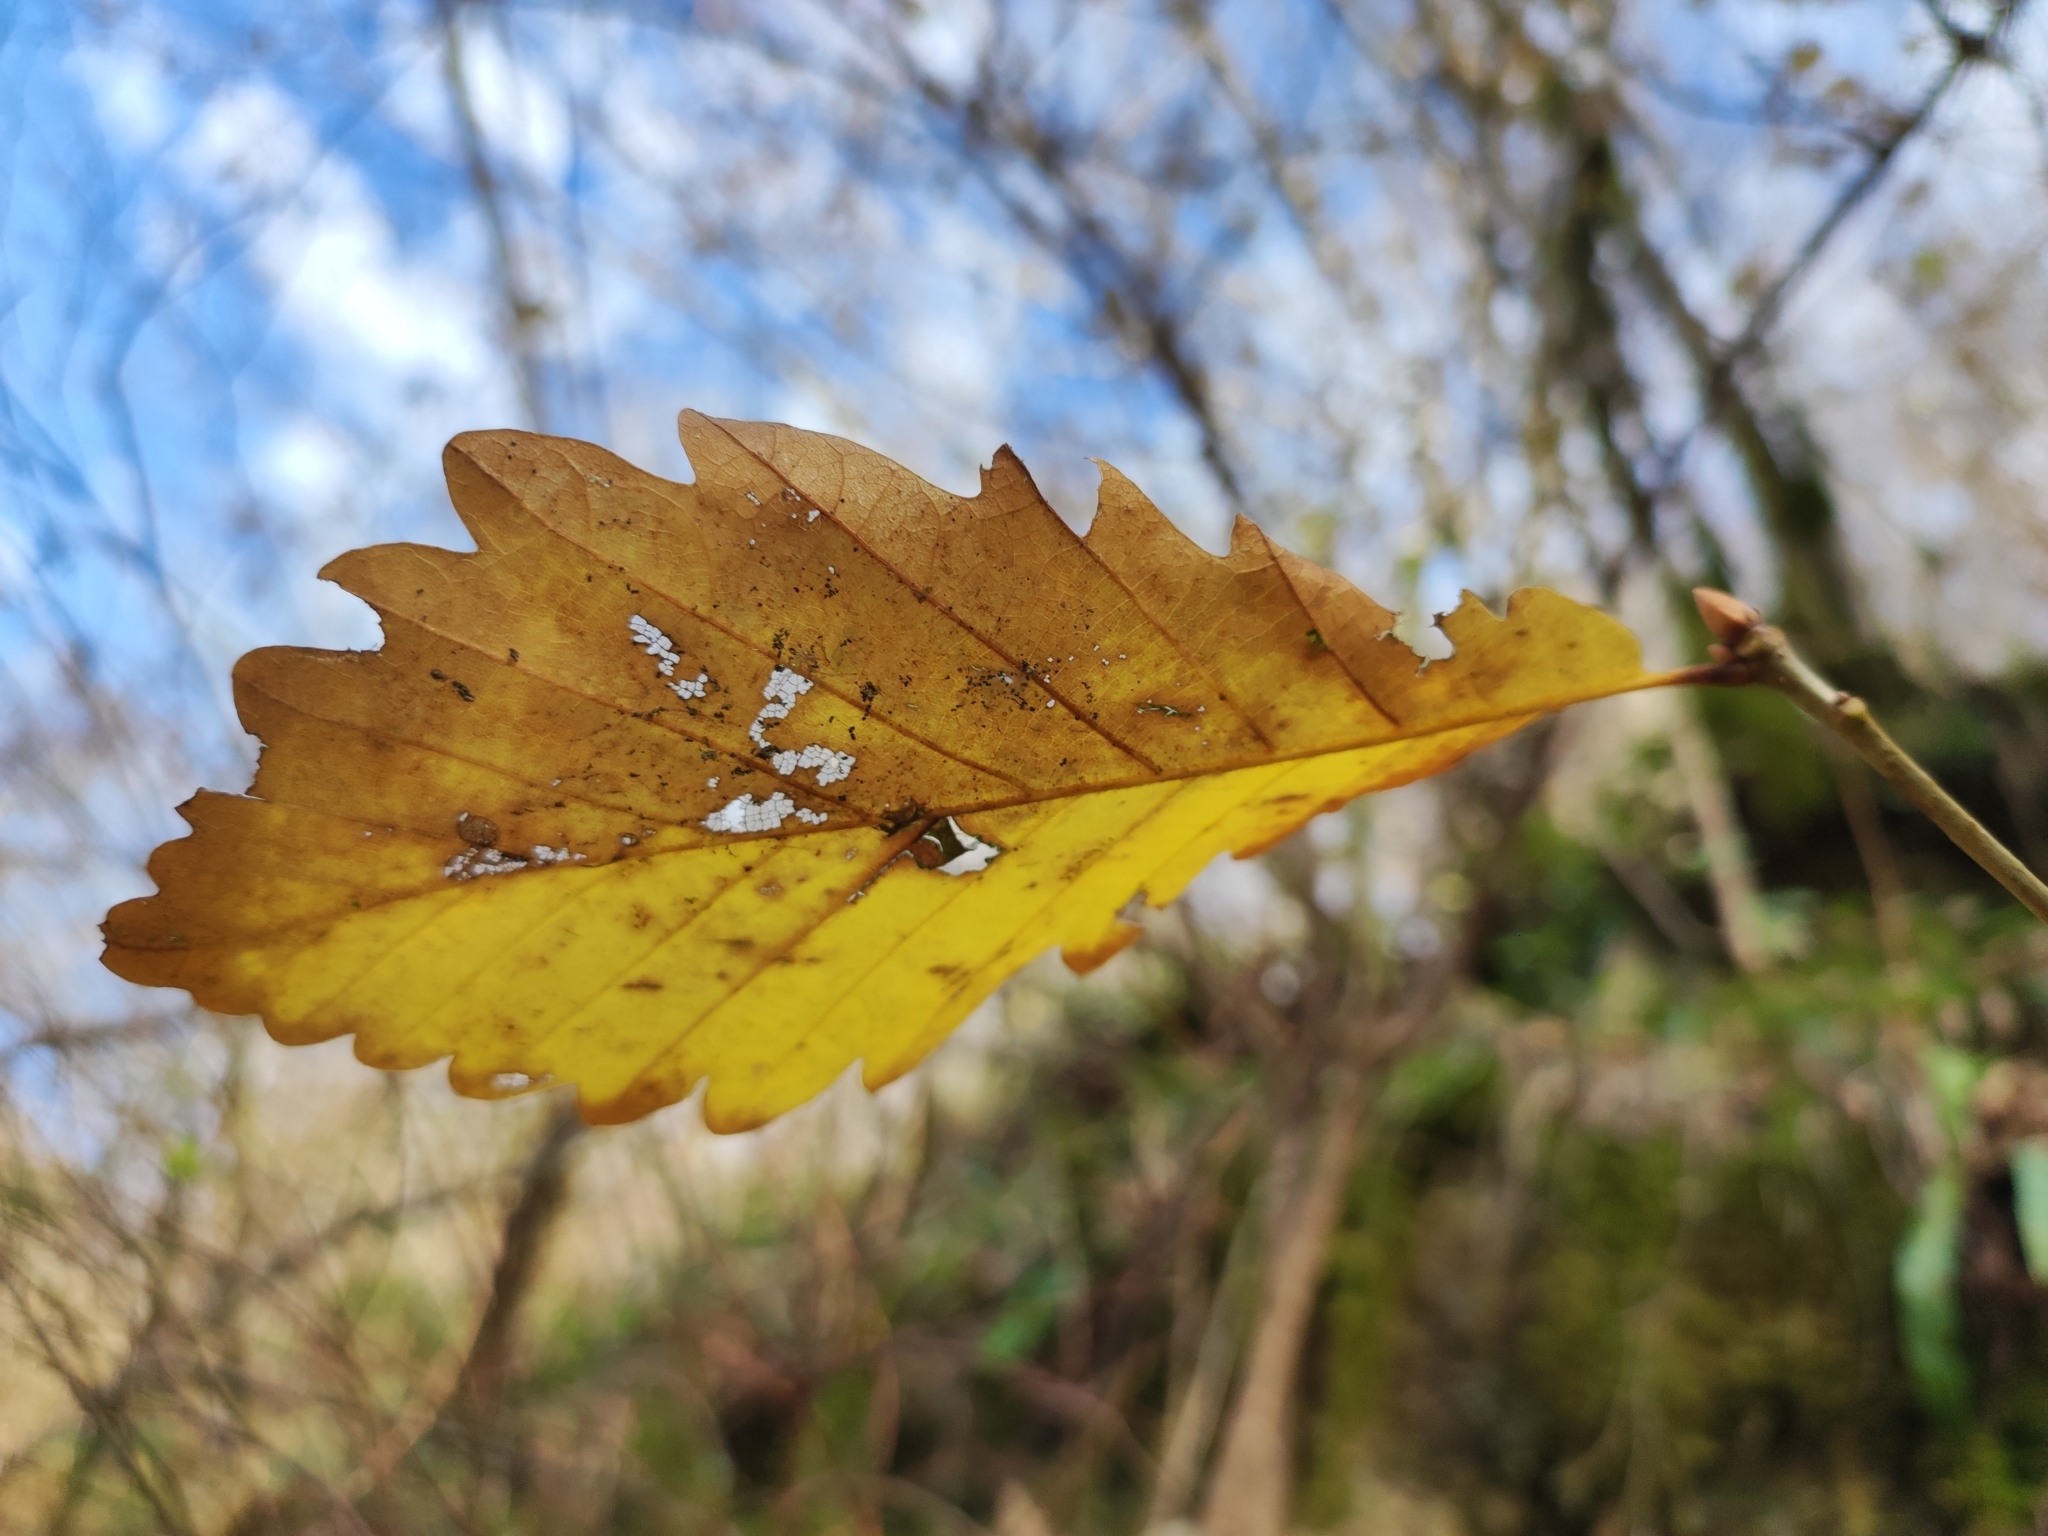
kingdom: Plantae
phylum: Tracheophyta
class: Magnoliopsida
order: Fagales
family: Fagaceae
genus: Quercus
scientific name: Quercus petraea
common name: Sessile oak
